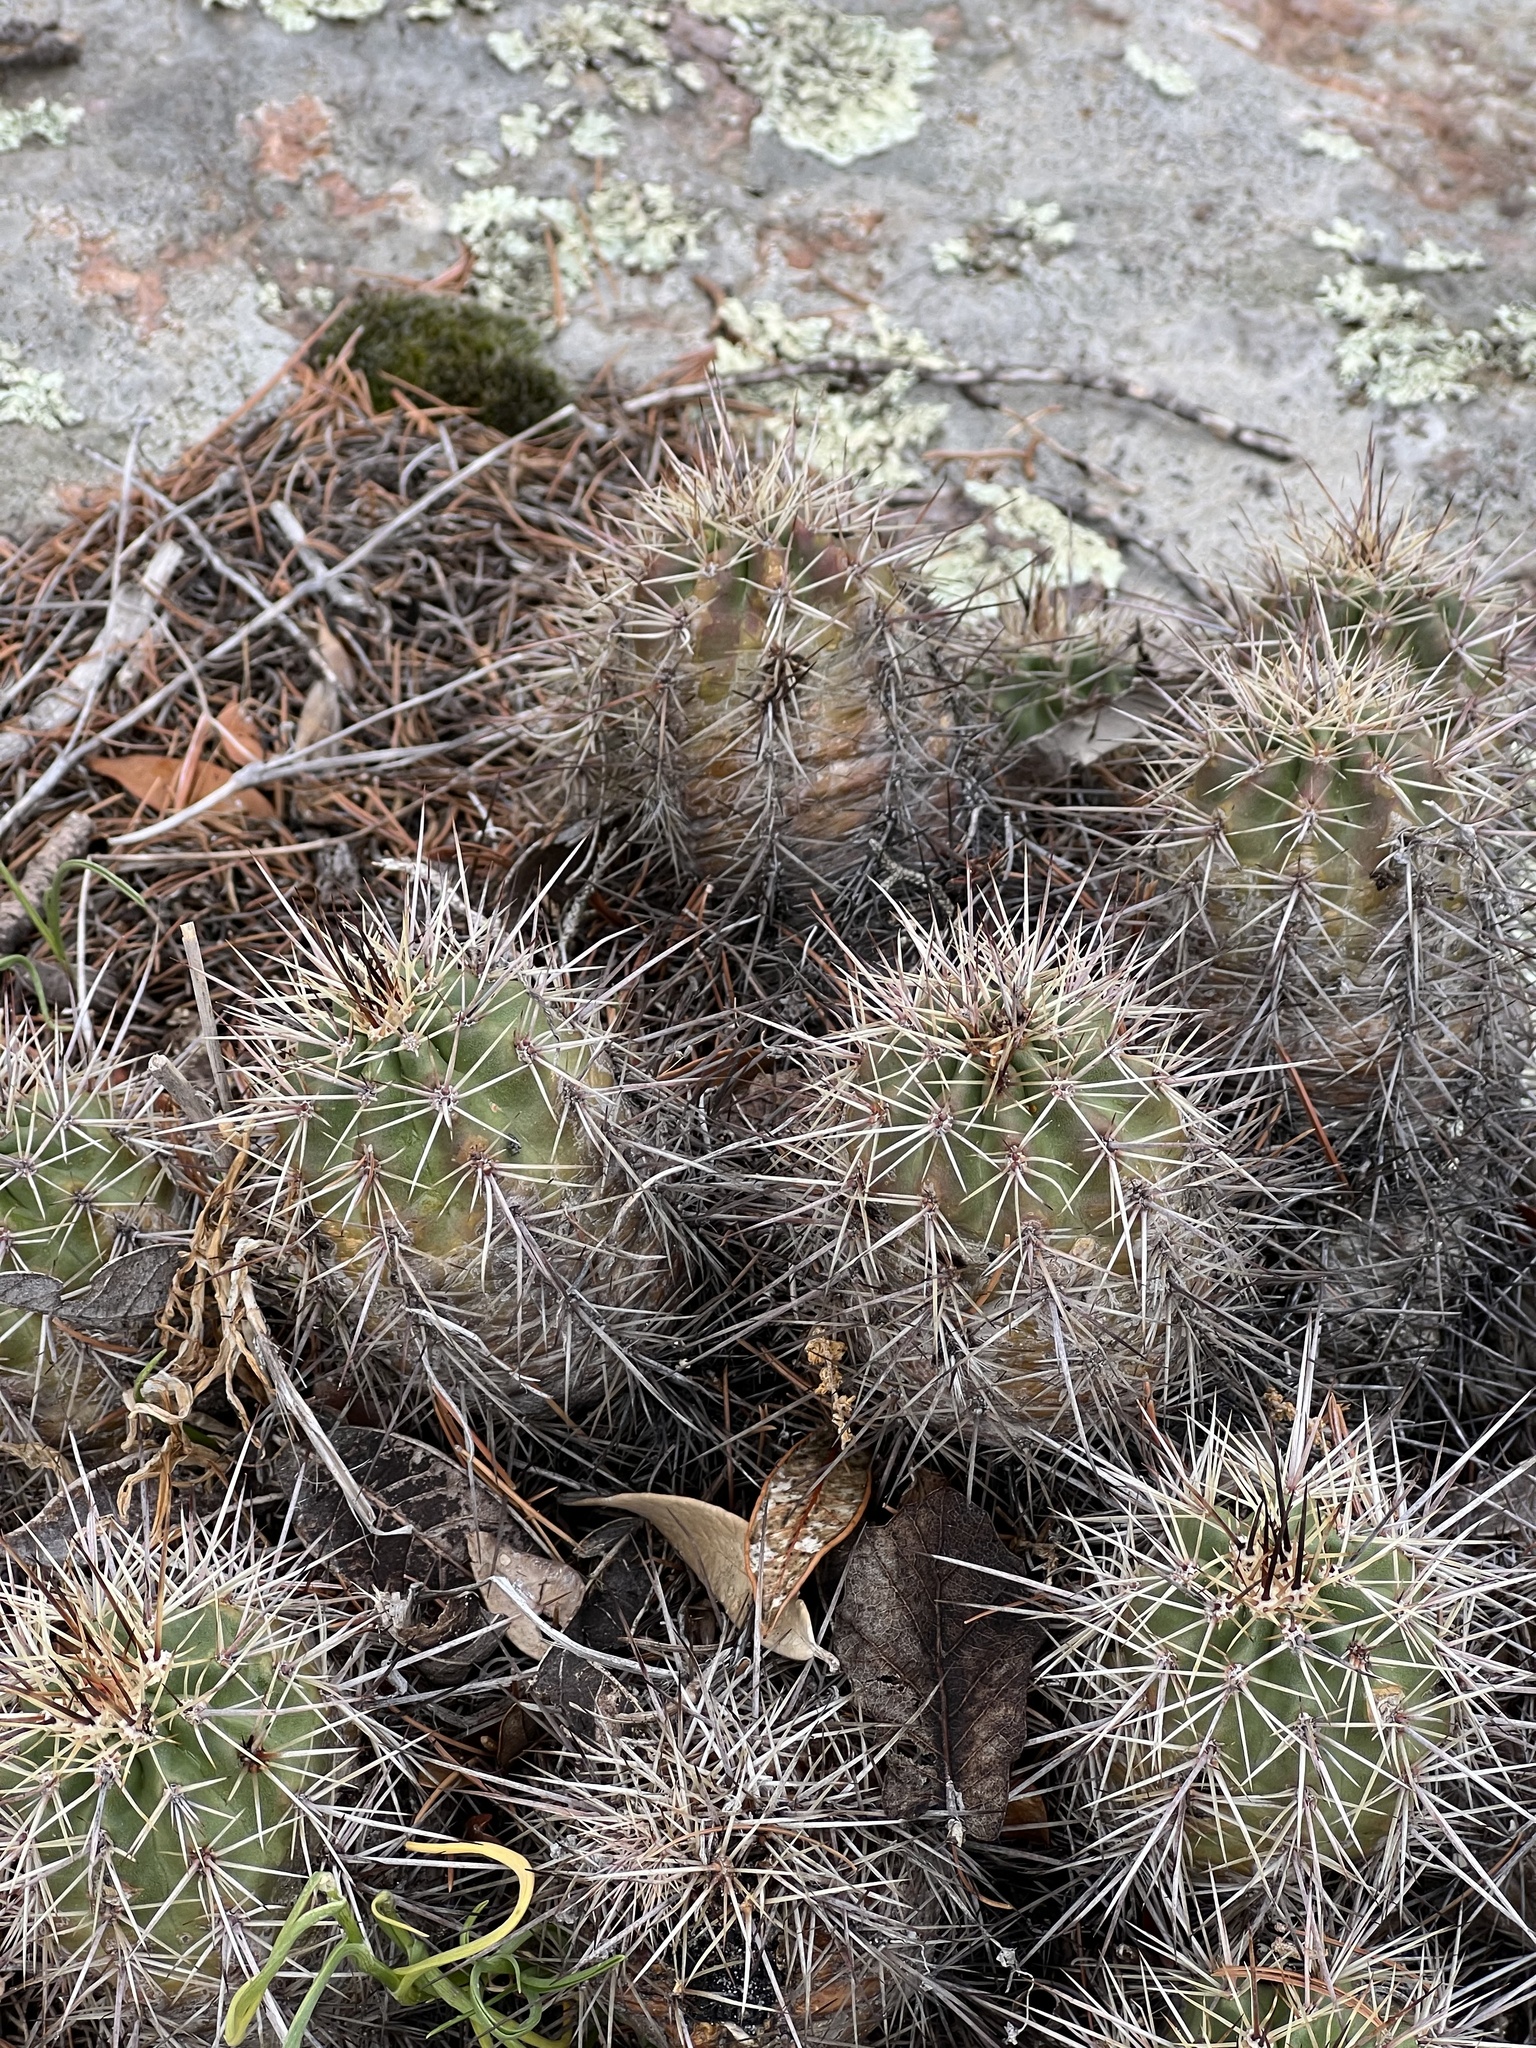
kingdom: Plantae
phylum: Tracheophyta
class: Magnoliopsida
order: Caryophyllales
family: Cactaceae
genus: Echinocereus
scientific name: Echinocereus arizonicus
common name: Arizona hedgehog cactus
